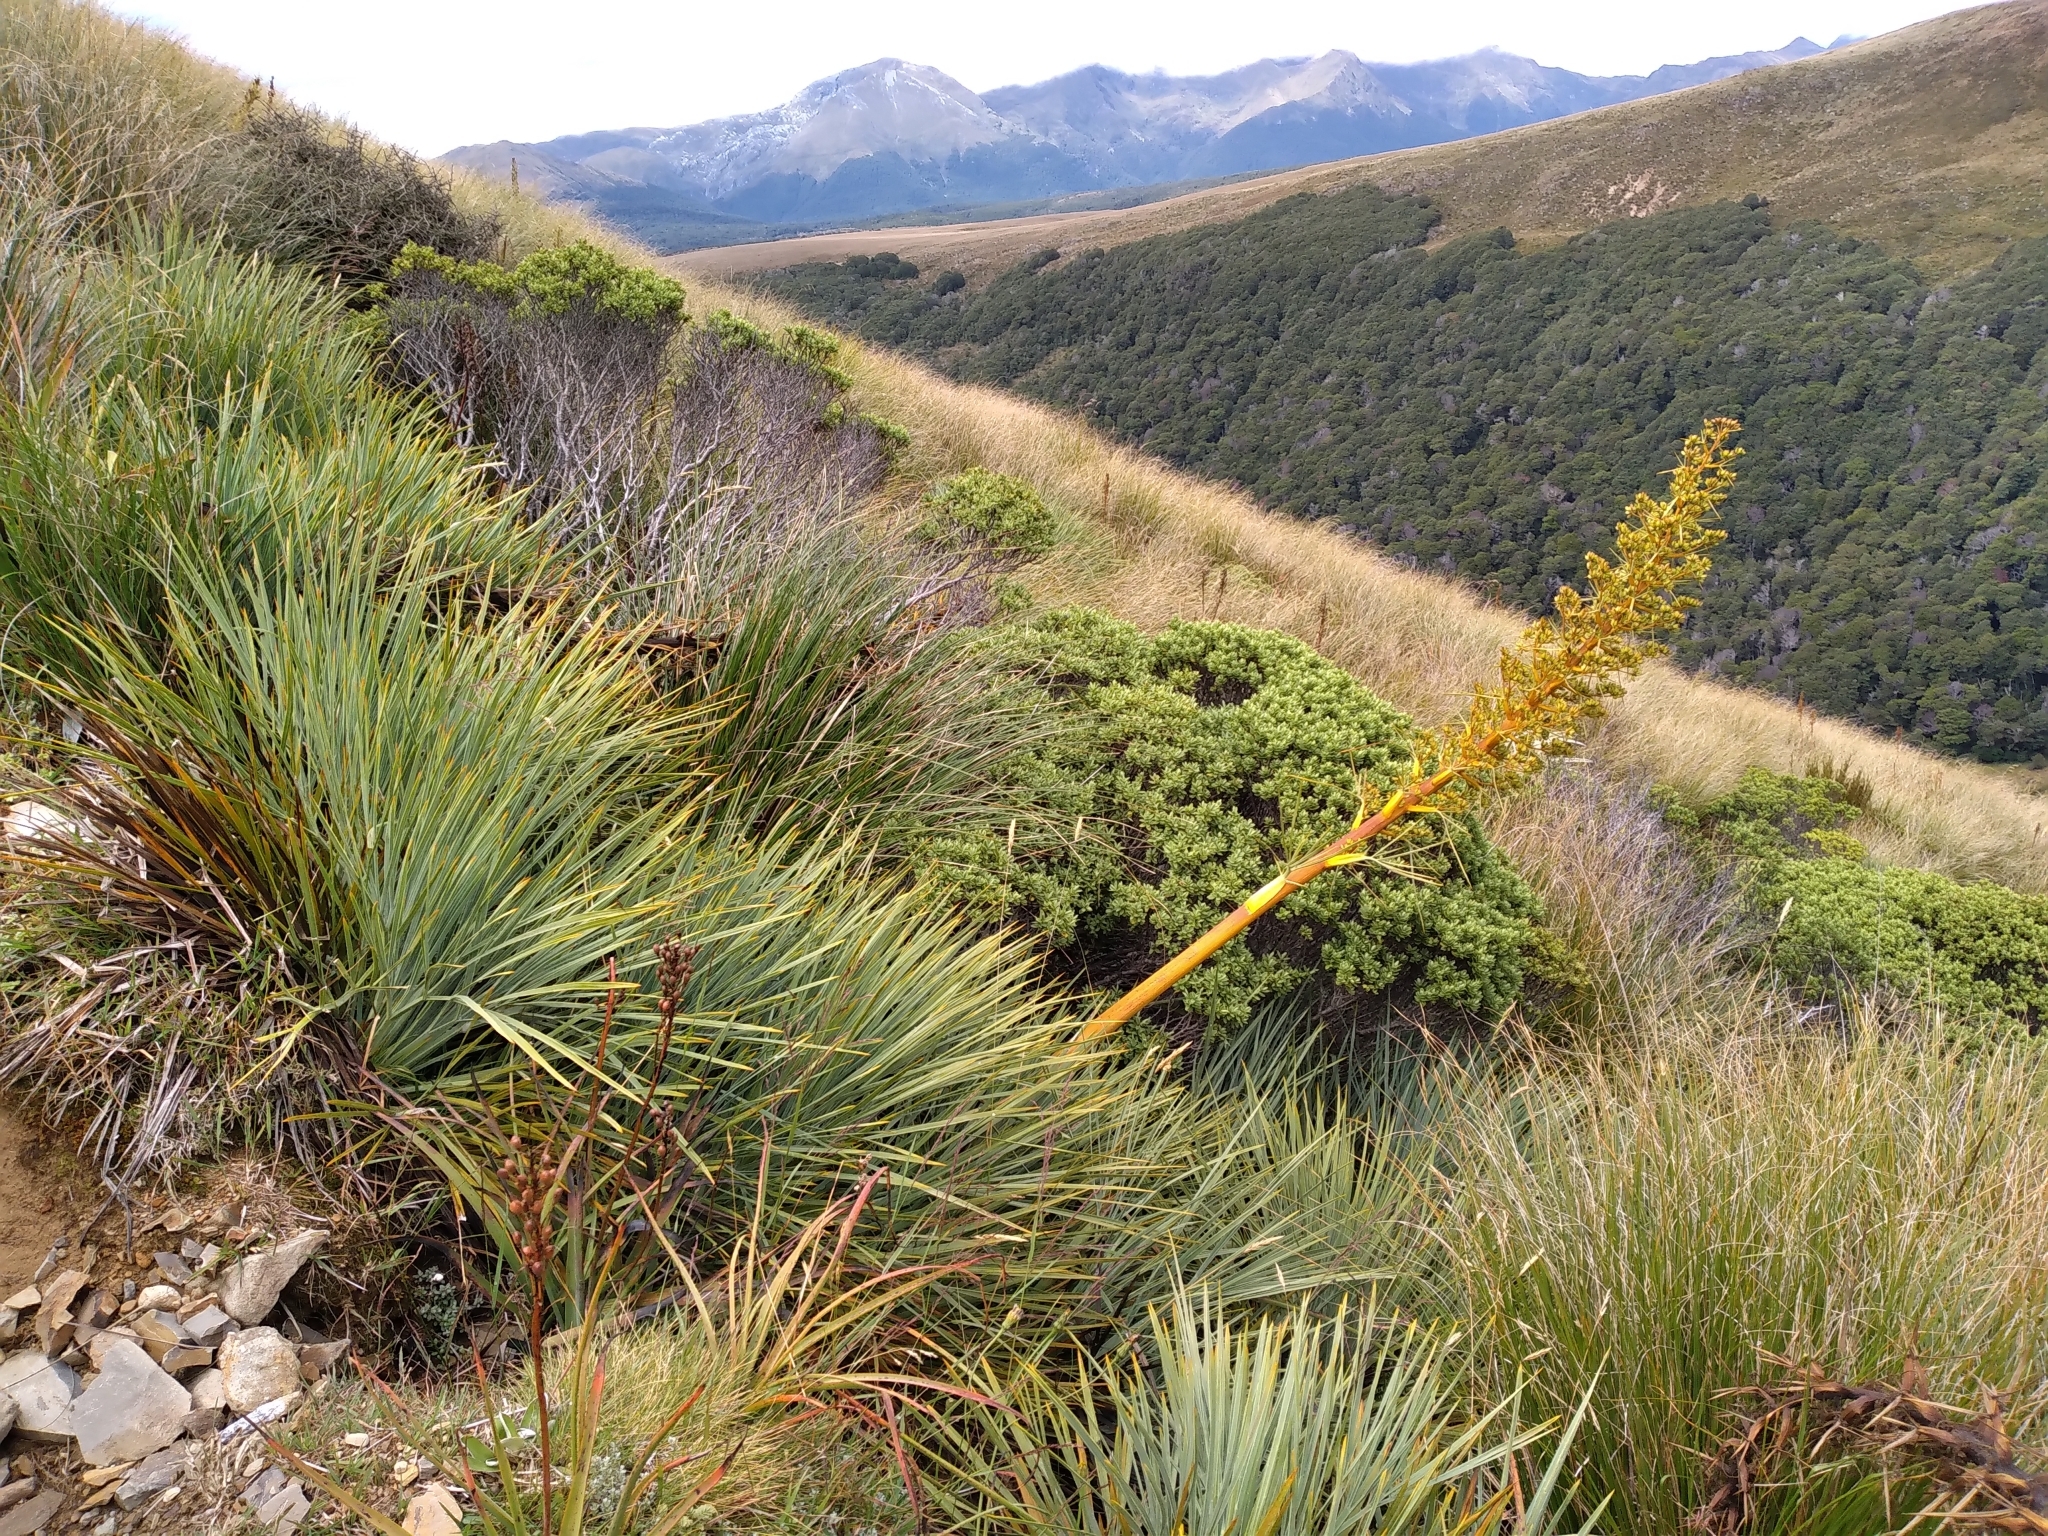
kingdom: Plantae
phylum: Tracheophyta
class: Magnoliopsida
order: Apiales
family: Apiaceae
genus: Aciphylla
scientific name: Aciphylla glaucescens
